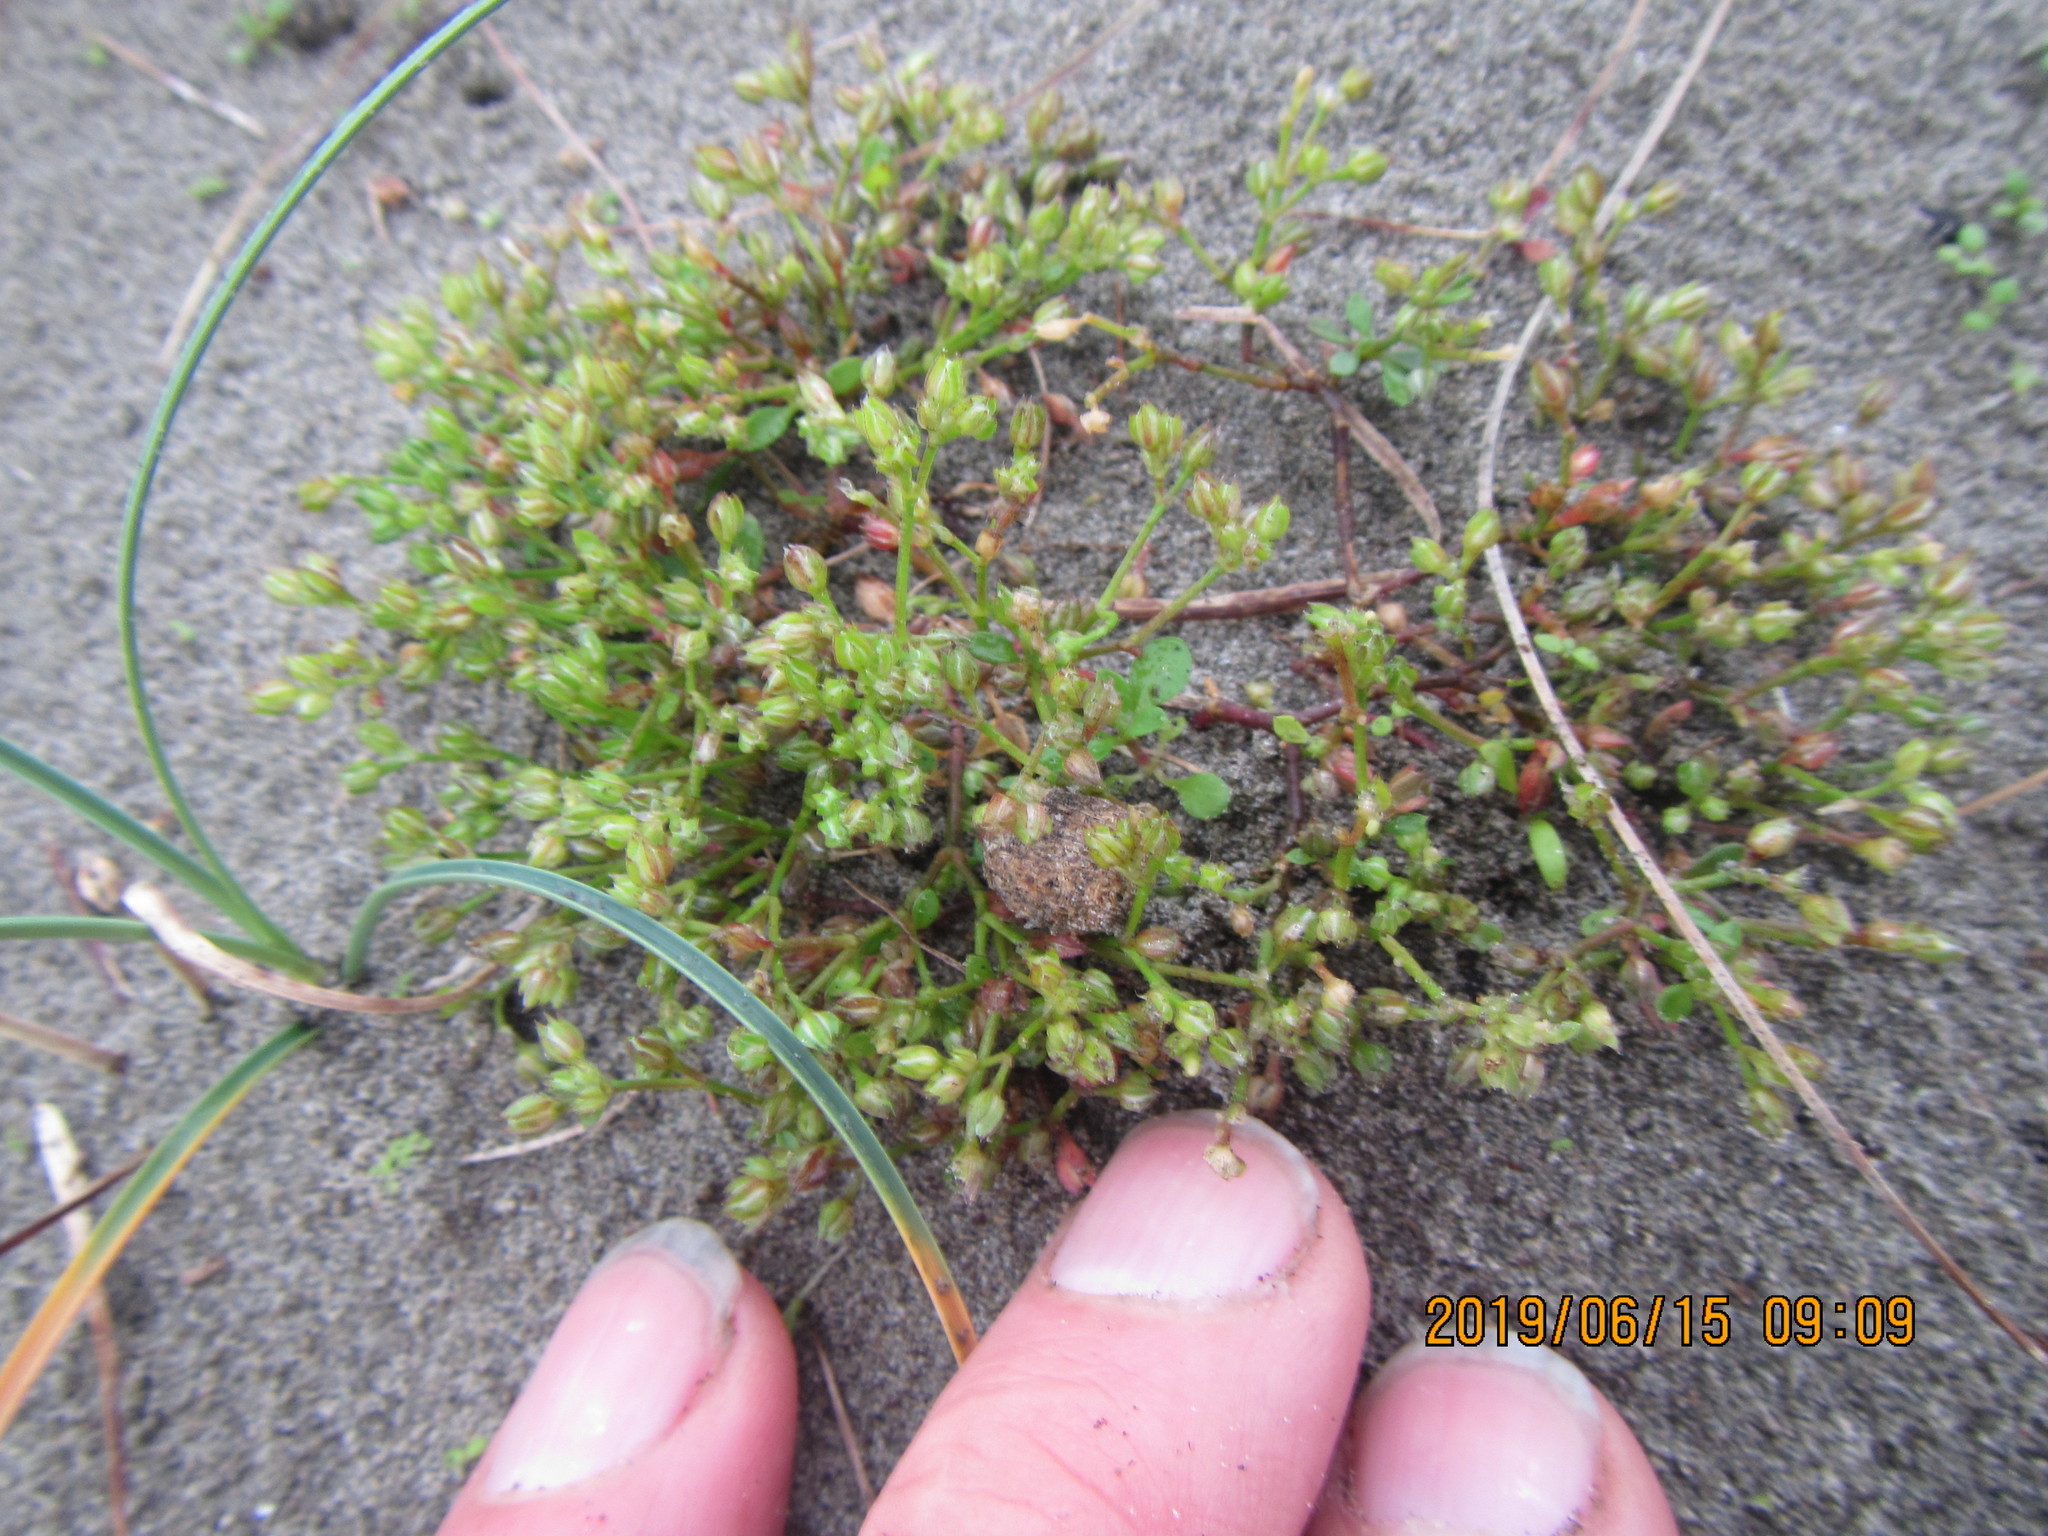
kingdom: Plantae
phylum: Tracheophyta
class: Magnoliopsida
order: Caryophyllales
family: Caryophyllaceae
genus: Polycarpon
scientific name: Polycarpon tetraphyllum
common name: Four-leaved all-seed
